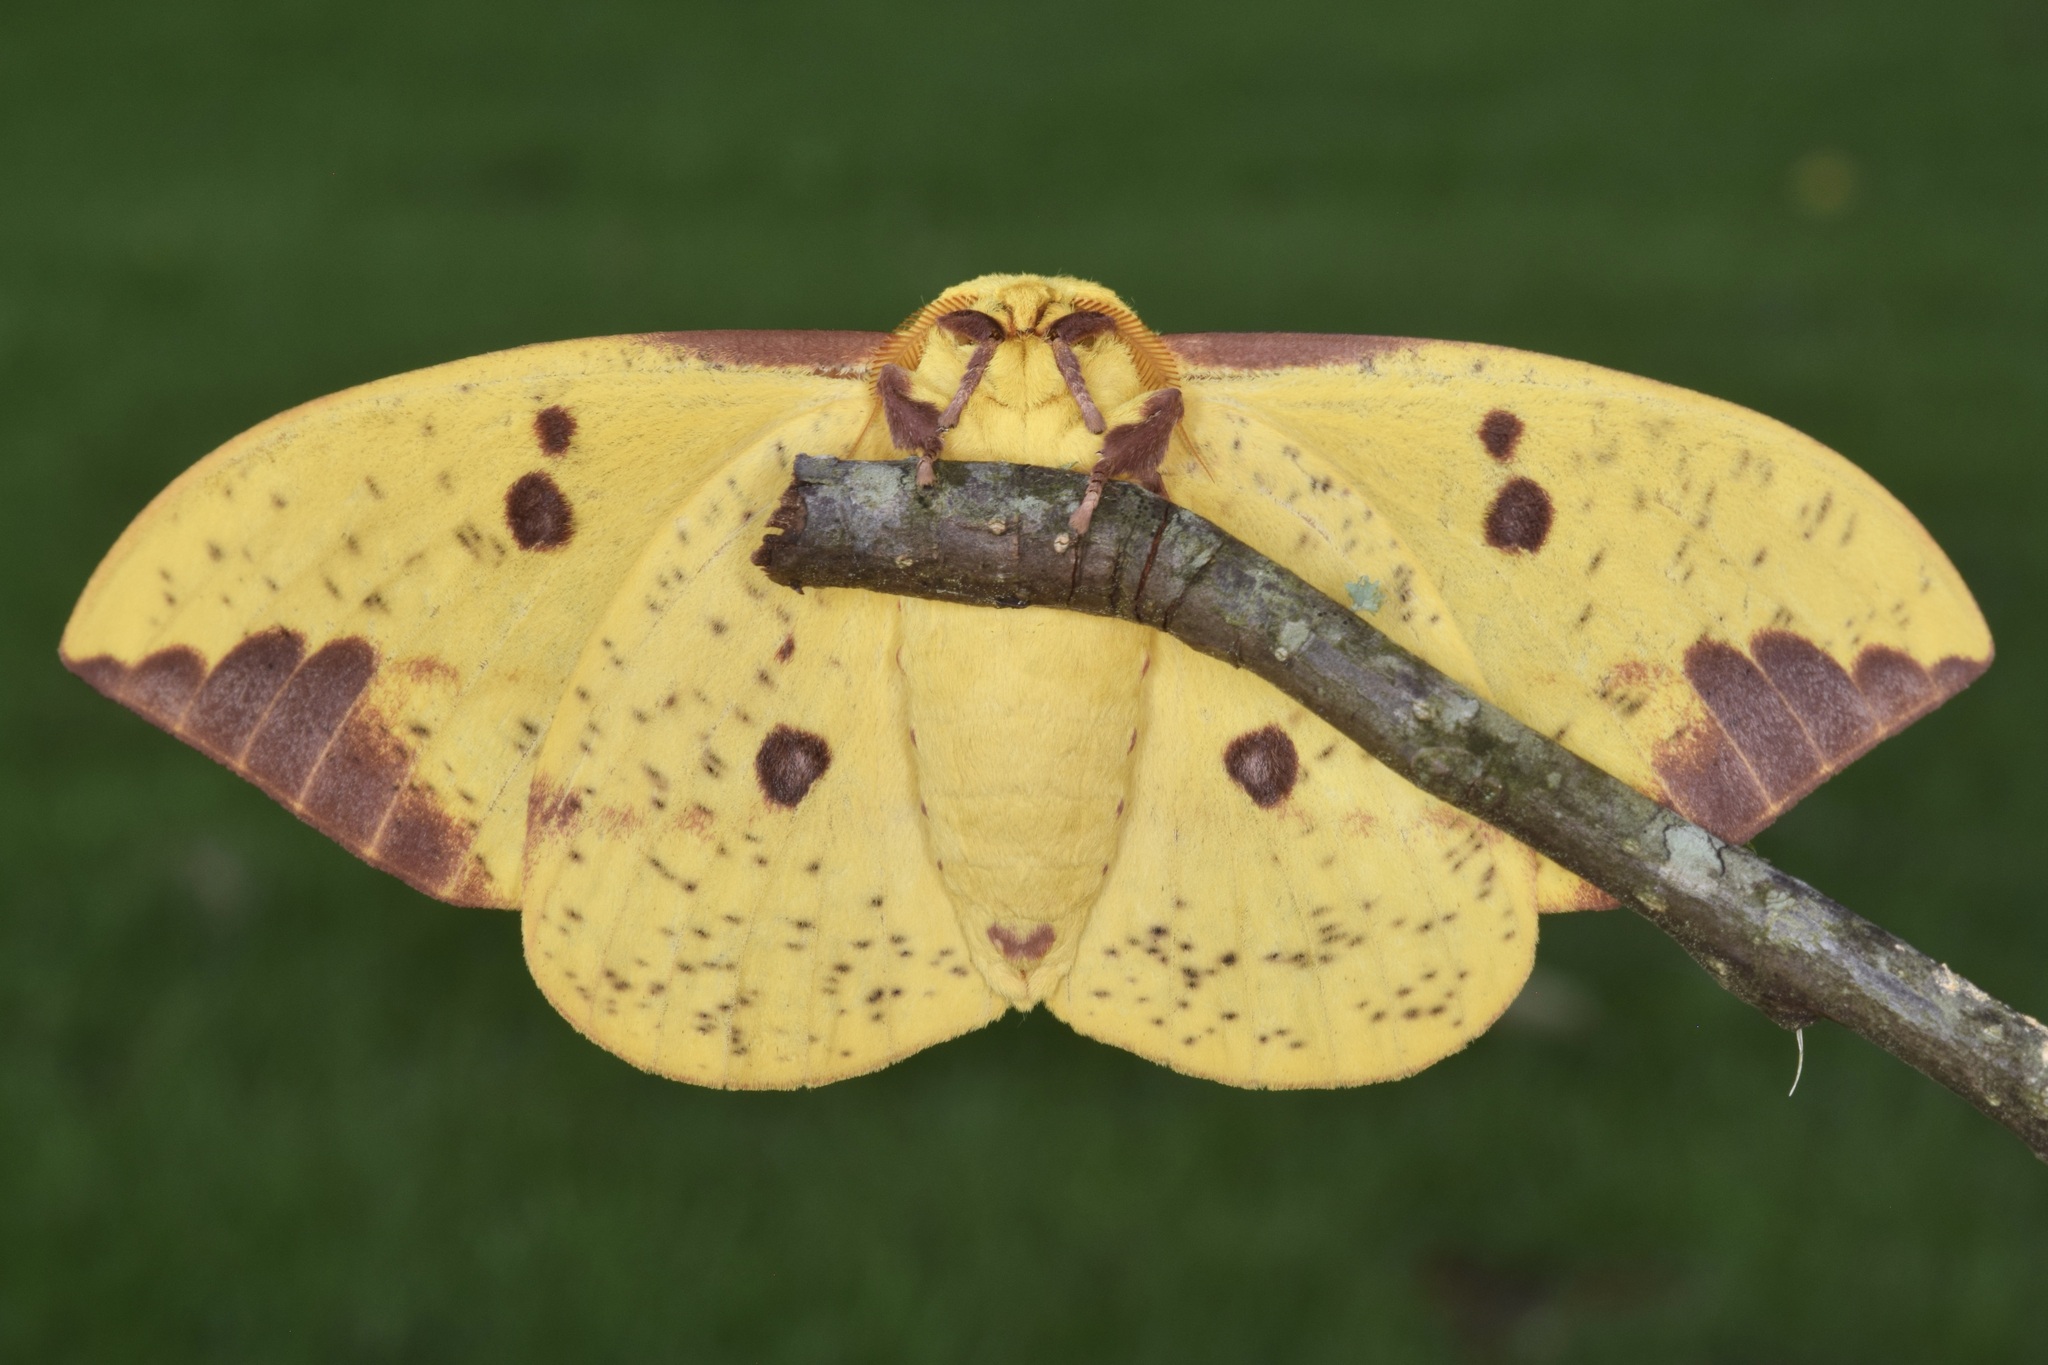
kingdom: Animalia
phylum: Arthropoda
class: Insecta
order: Lepidoptera
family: Saturniidae
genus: Eacles
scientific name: Eacles imperialis
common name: Imperial moth
